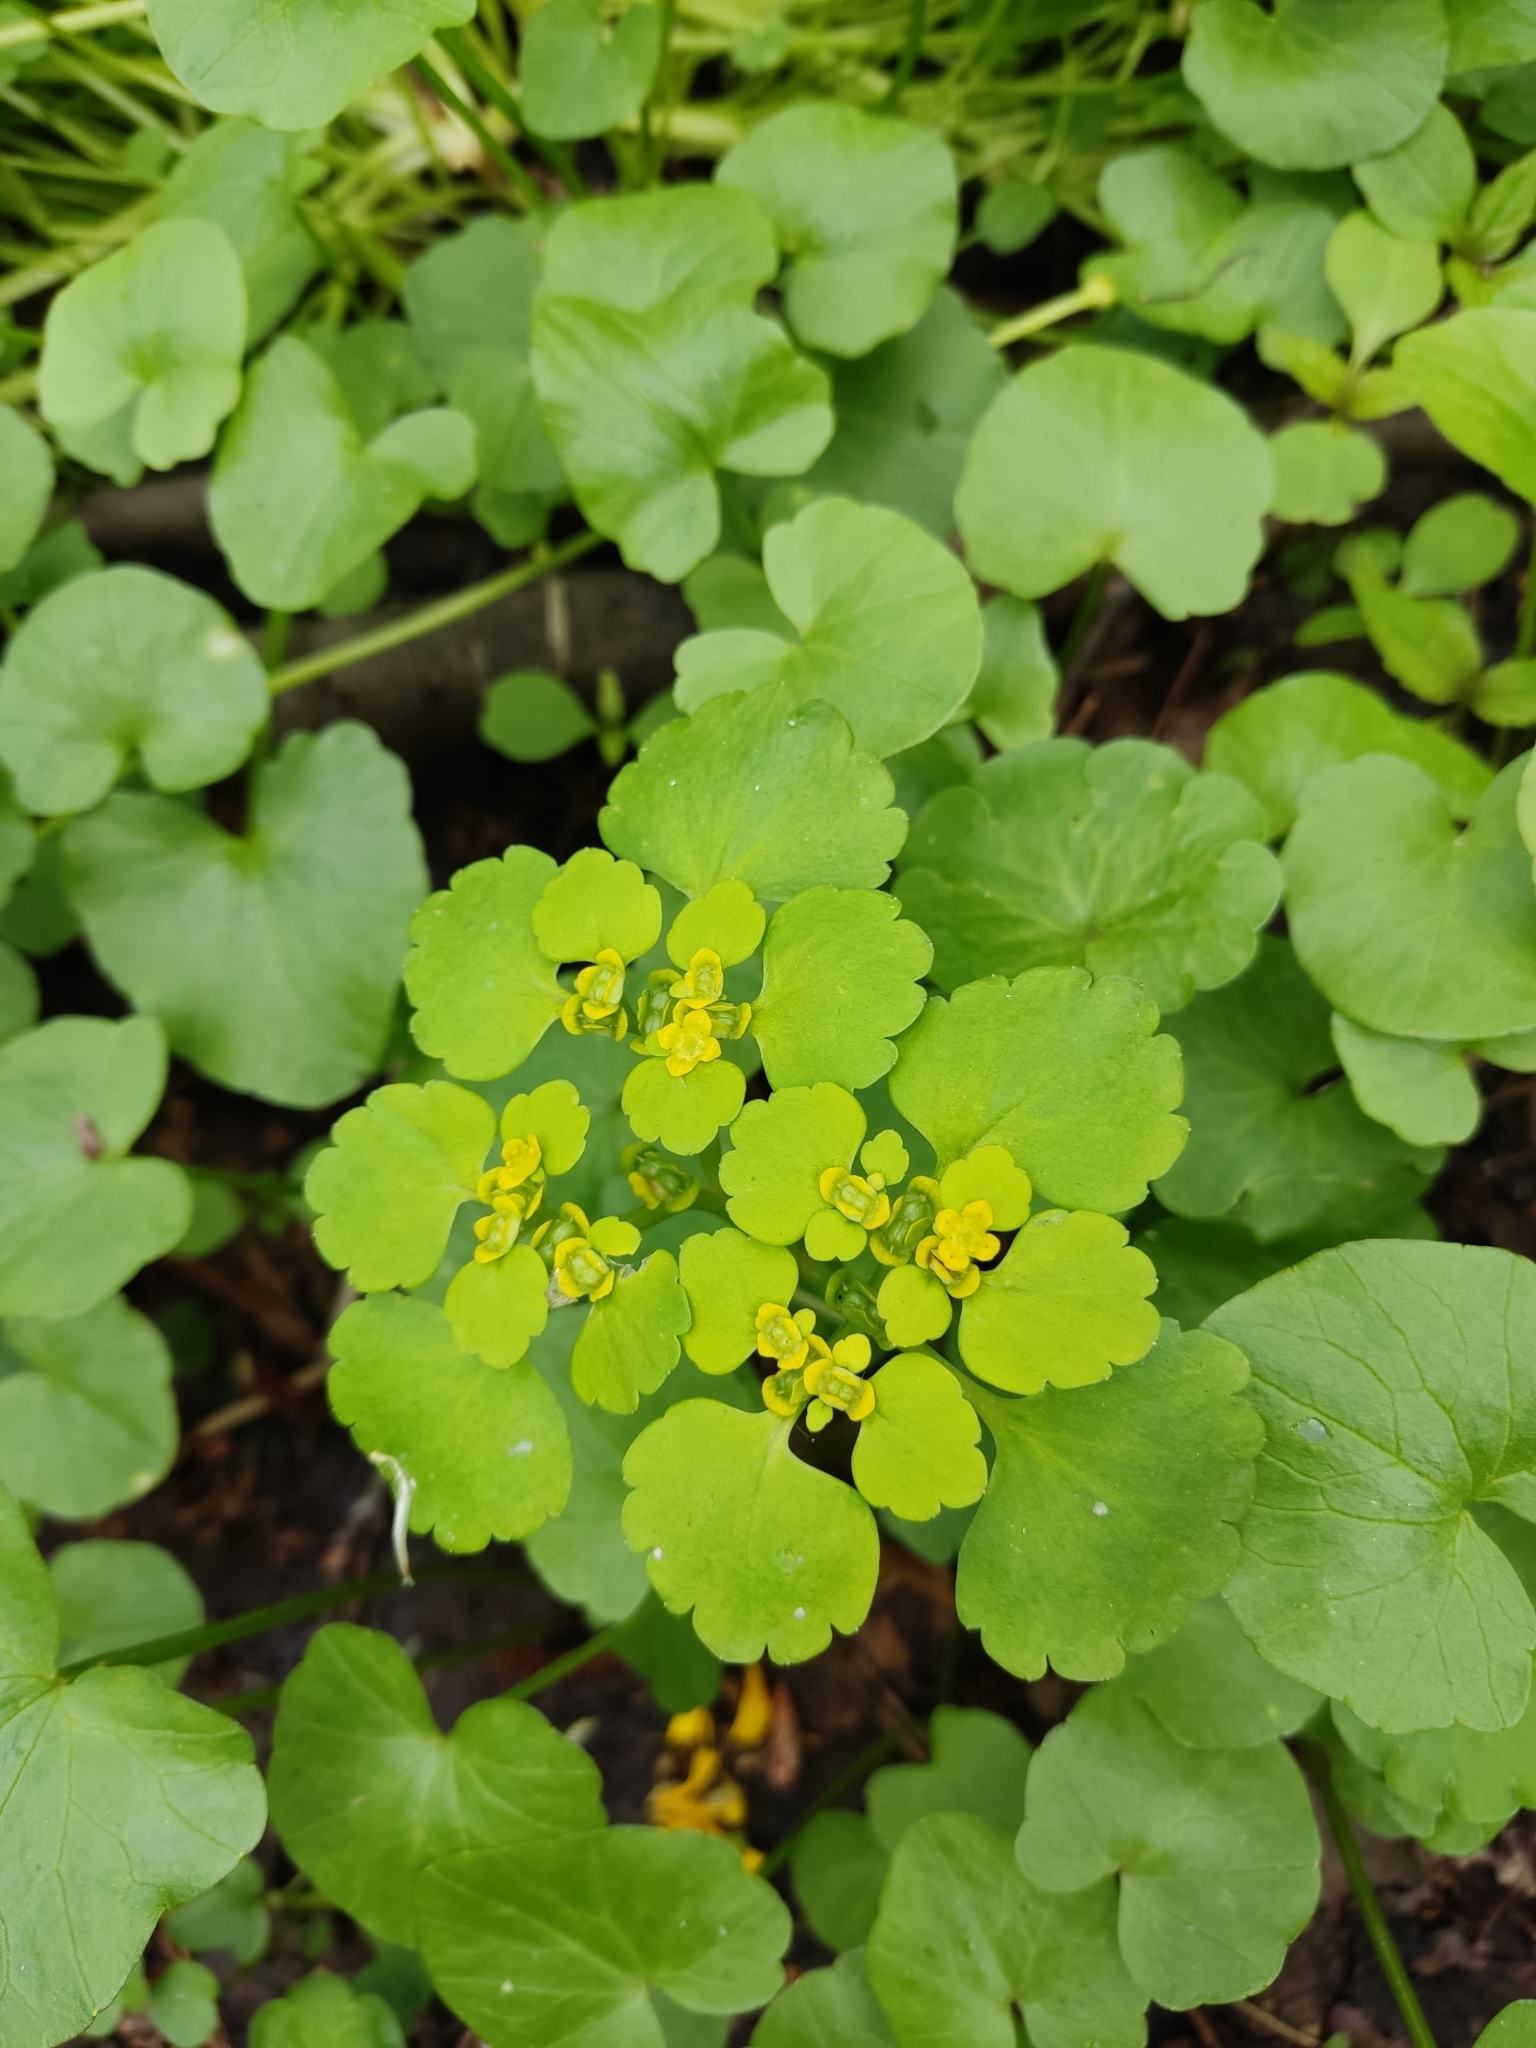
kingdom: Plantae
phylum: Tracheophyta
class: Magnoliopsida
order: Saxifragales
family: Saxifragaceae
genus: Chrysosplenium
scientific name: Chrysosplenium alternifolium
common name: Alternate-leaved golden-saxifrage
